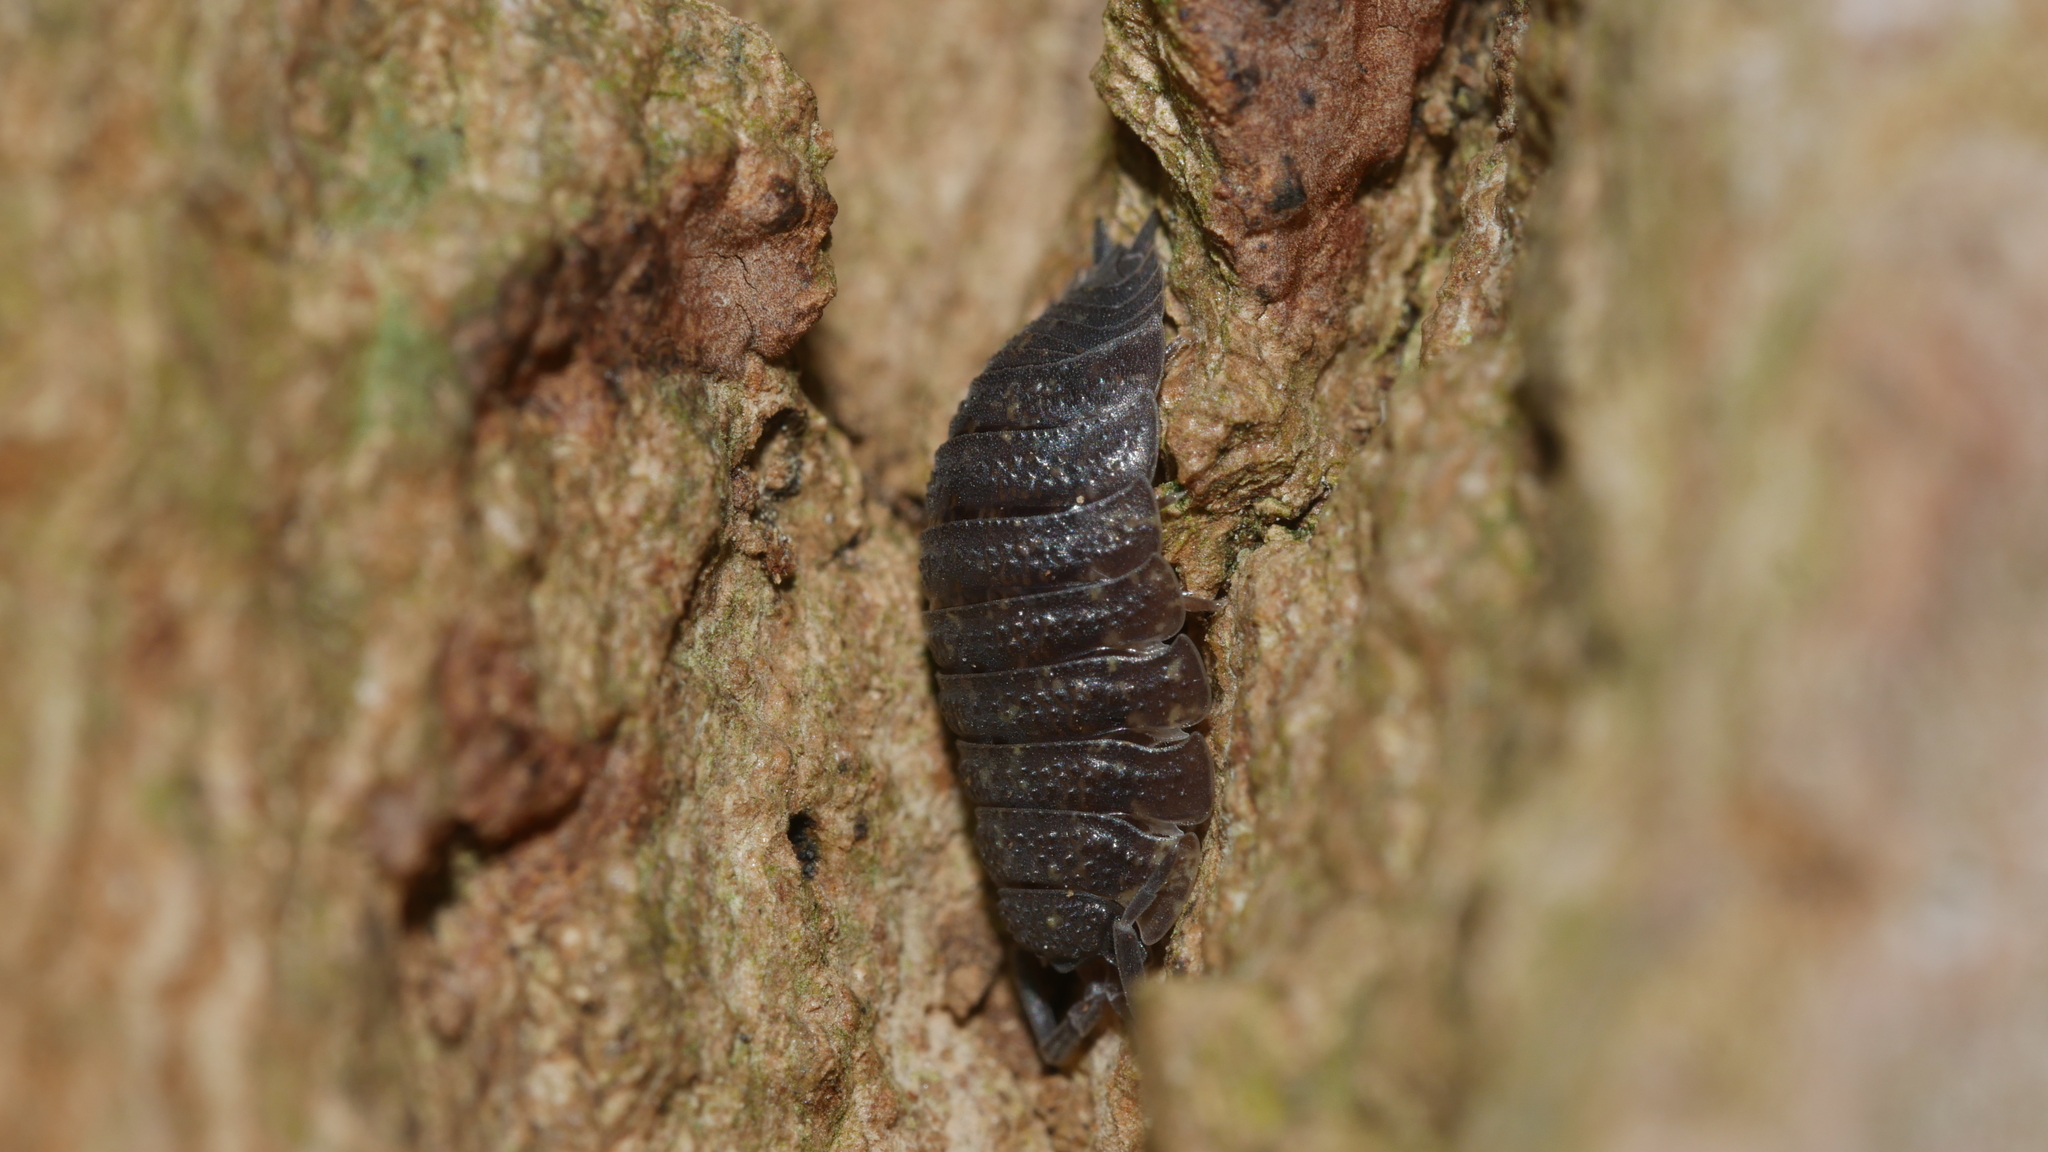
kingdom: Animalia
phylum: Arthropoda
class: Malacostraca
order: Isopoda
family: Porcellionidae
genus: Porcellio
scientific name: Porcellio scaber
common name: Common rough woodlouse
